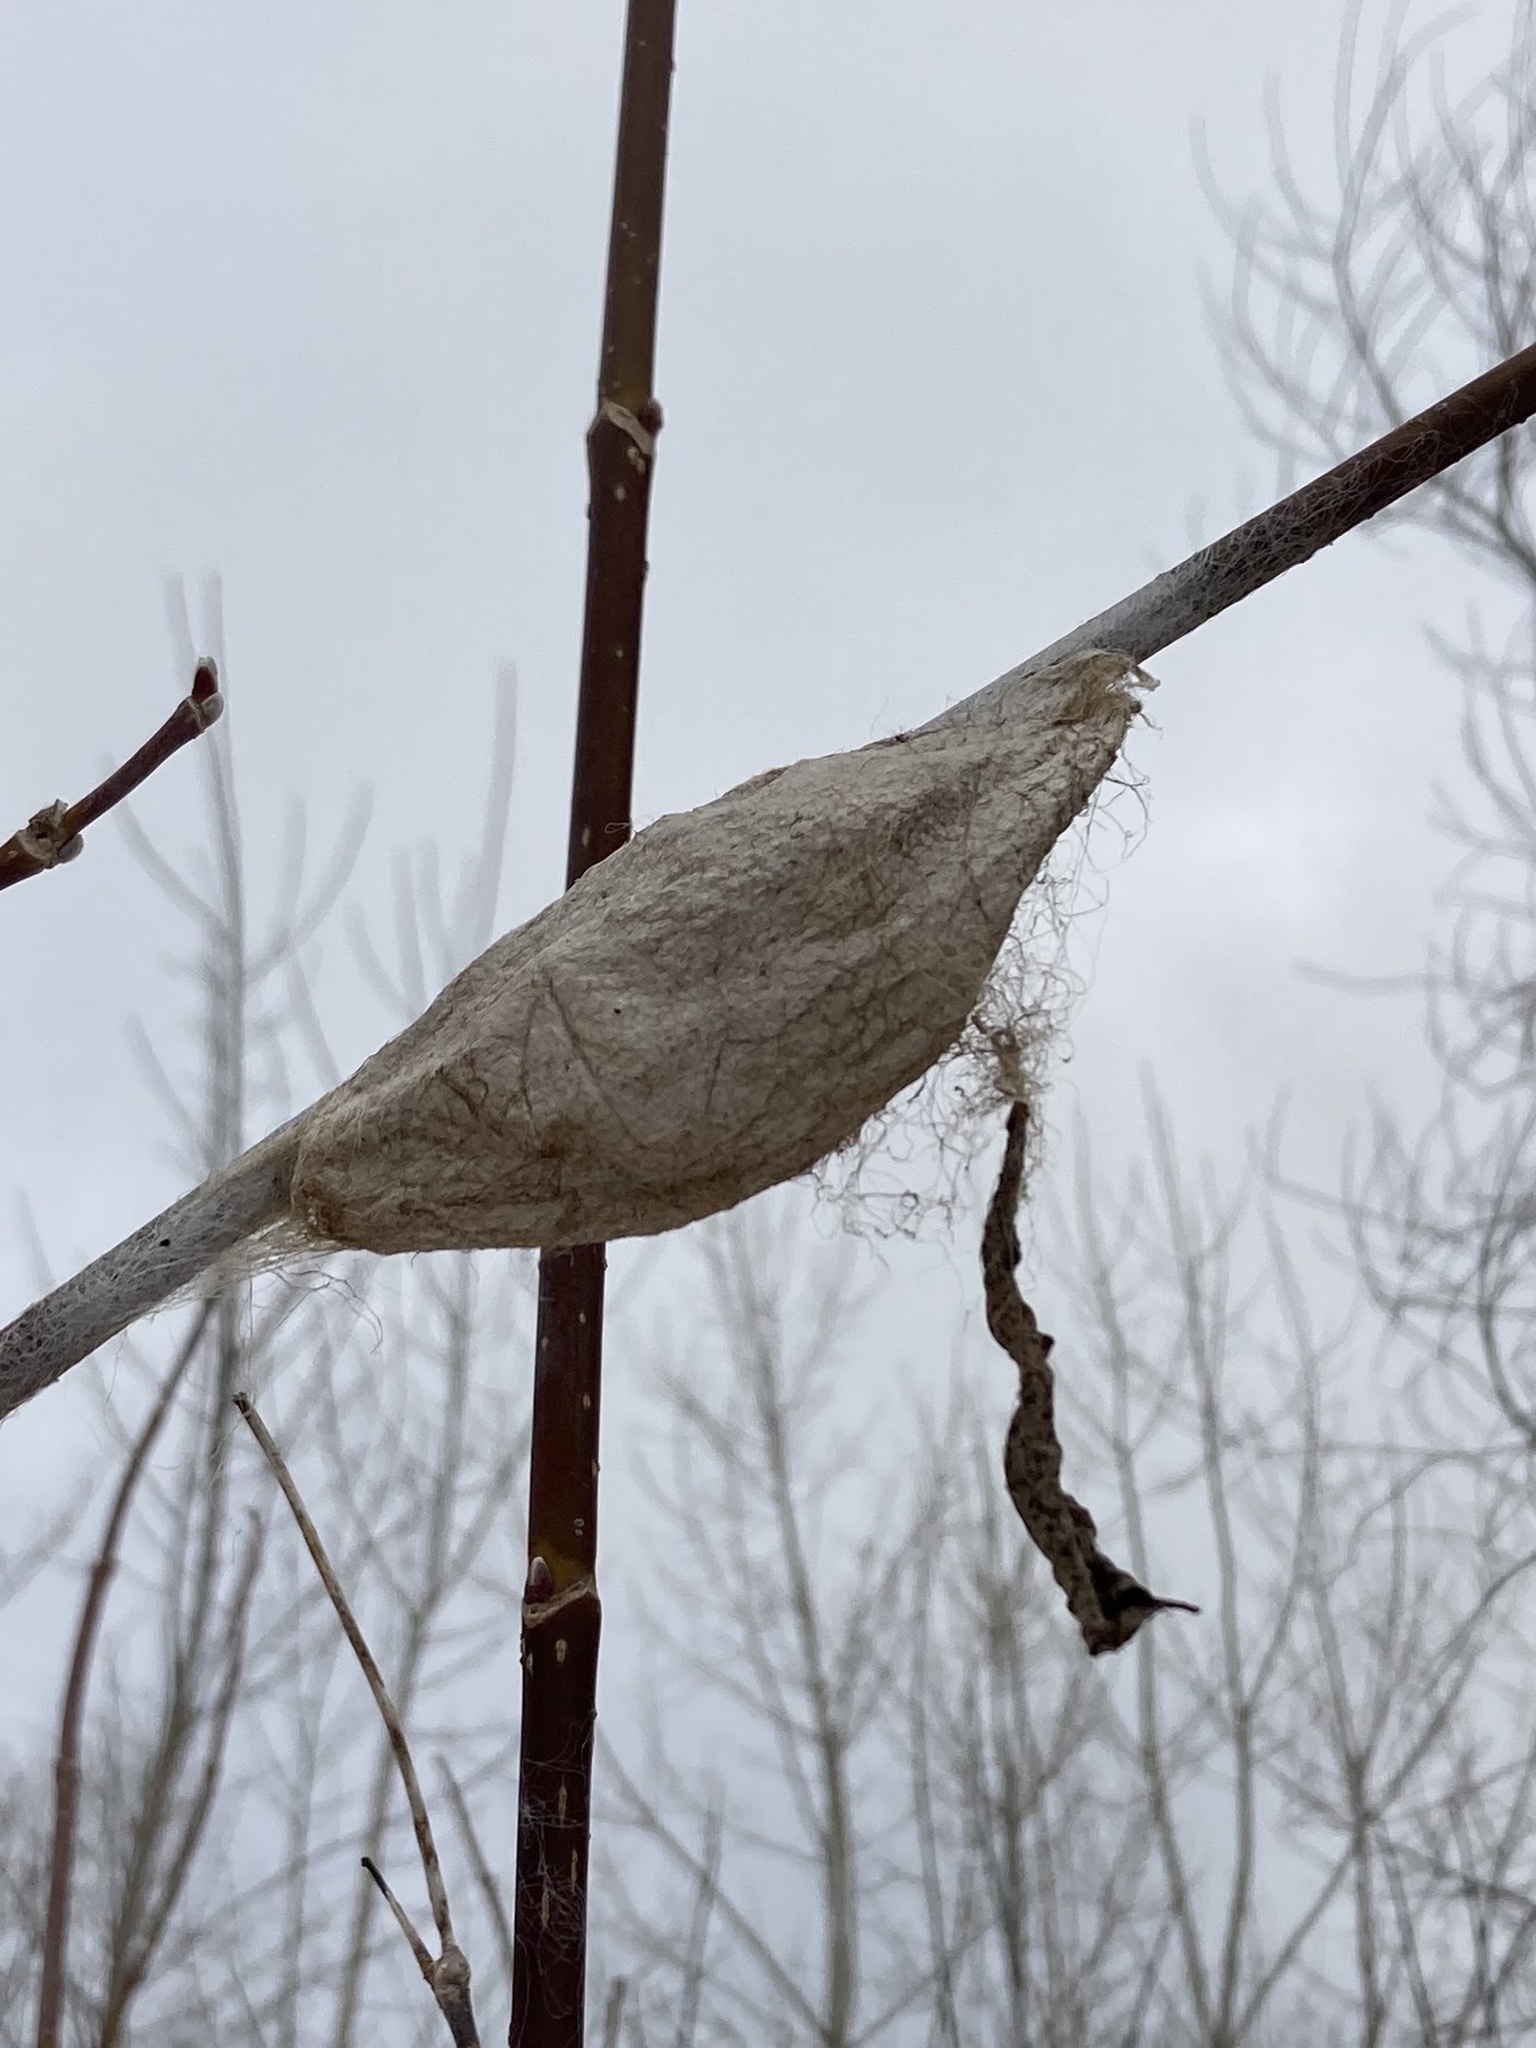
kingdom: Animalia
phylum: Arthropoda
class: Insecta
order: Lepidoptera
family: Saturniidae
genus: Hyalophora
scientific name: Hyalophora cecropia
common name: Cecropia silkmoth
